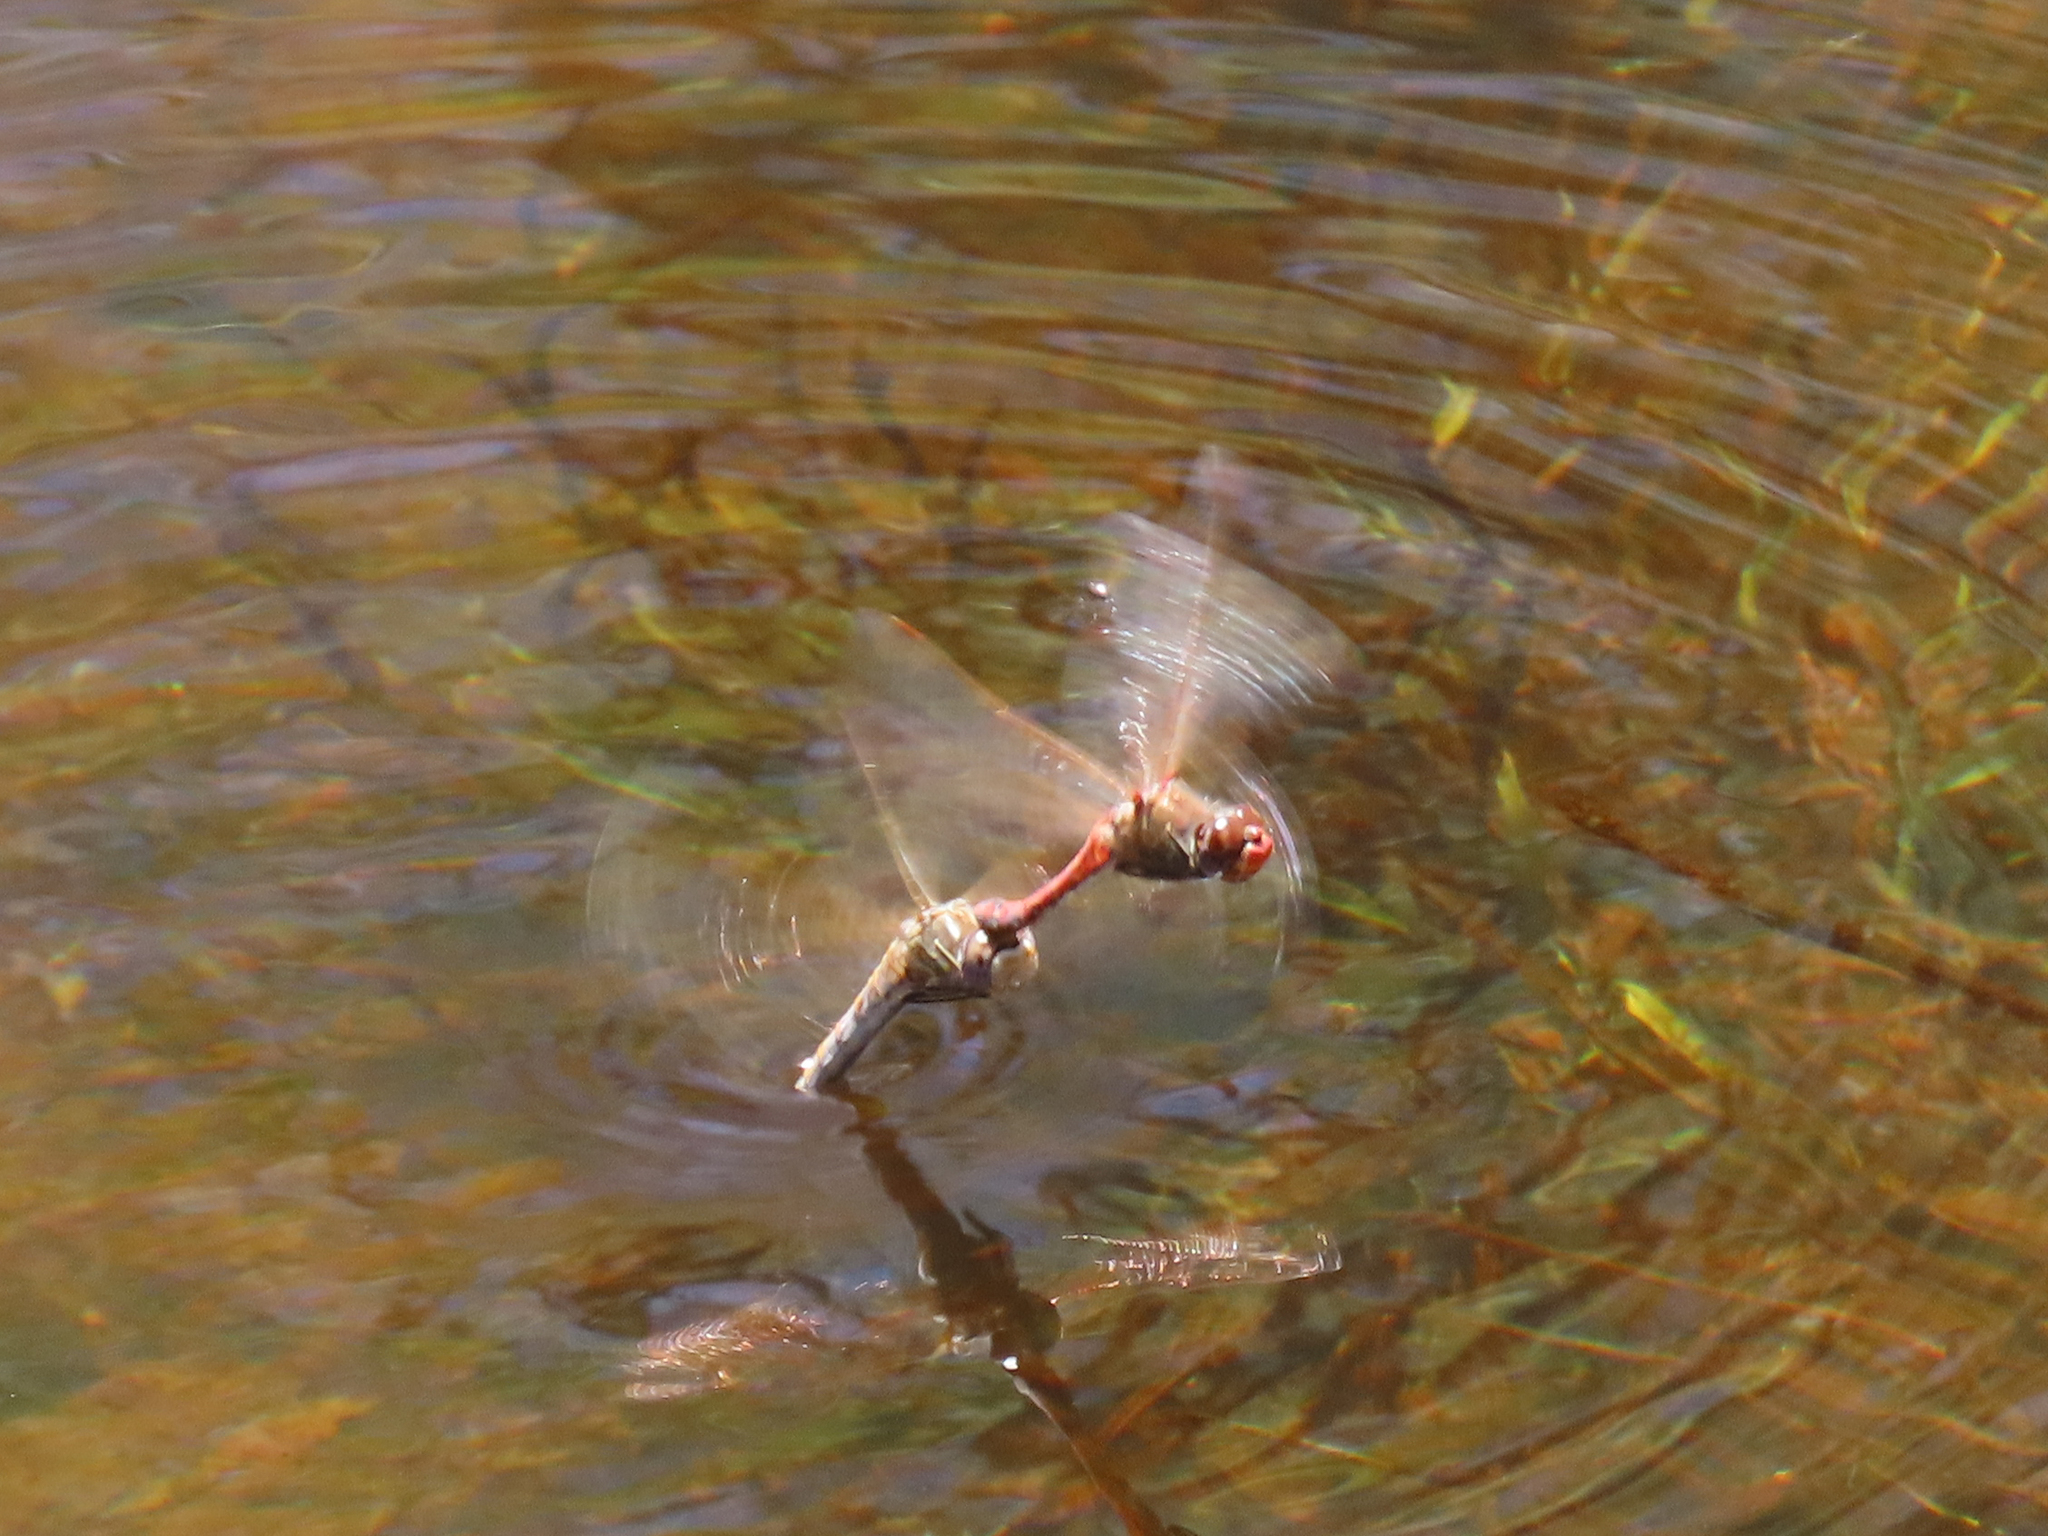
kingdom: Animalia
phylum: Arthropoda
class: Insecta
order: Odonata
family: Libellulidae
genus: Sympetrum
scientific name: Sympetrum corruptum
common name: Variegated meadowhawk
